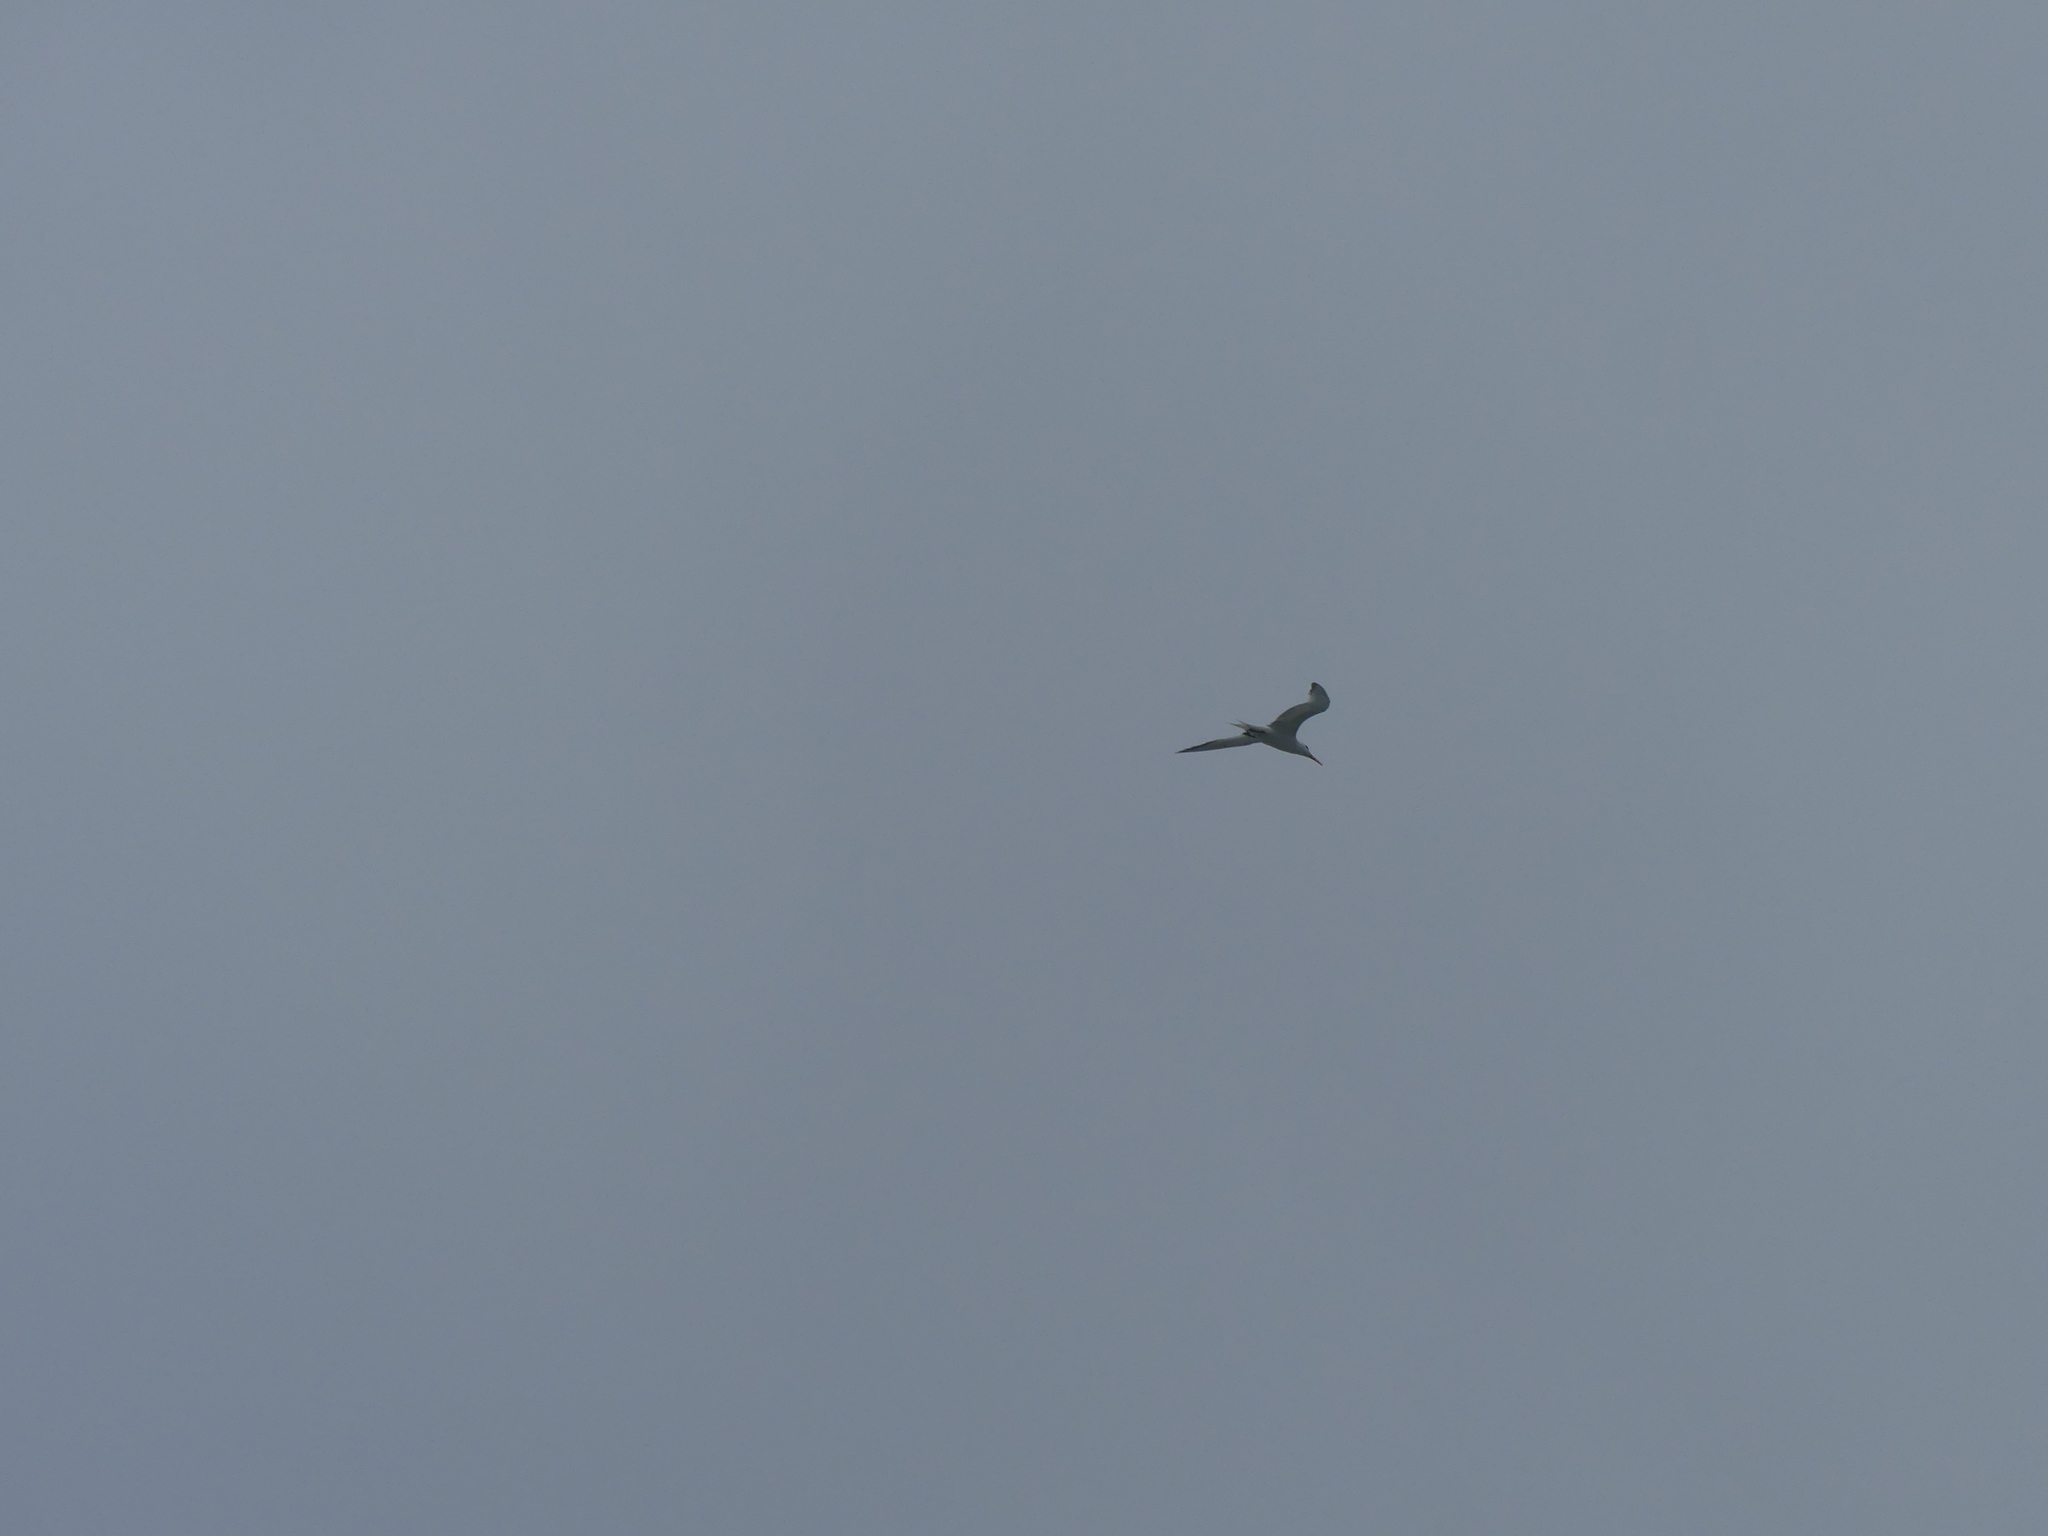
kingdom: Animalia
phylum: Chordata
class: Aves
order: Charadriiformes
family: Laridae
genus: Thalasseus
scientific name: Thalasseus maximus
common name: Royal tern
